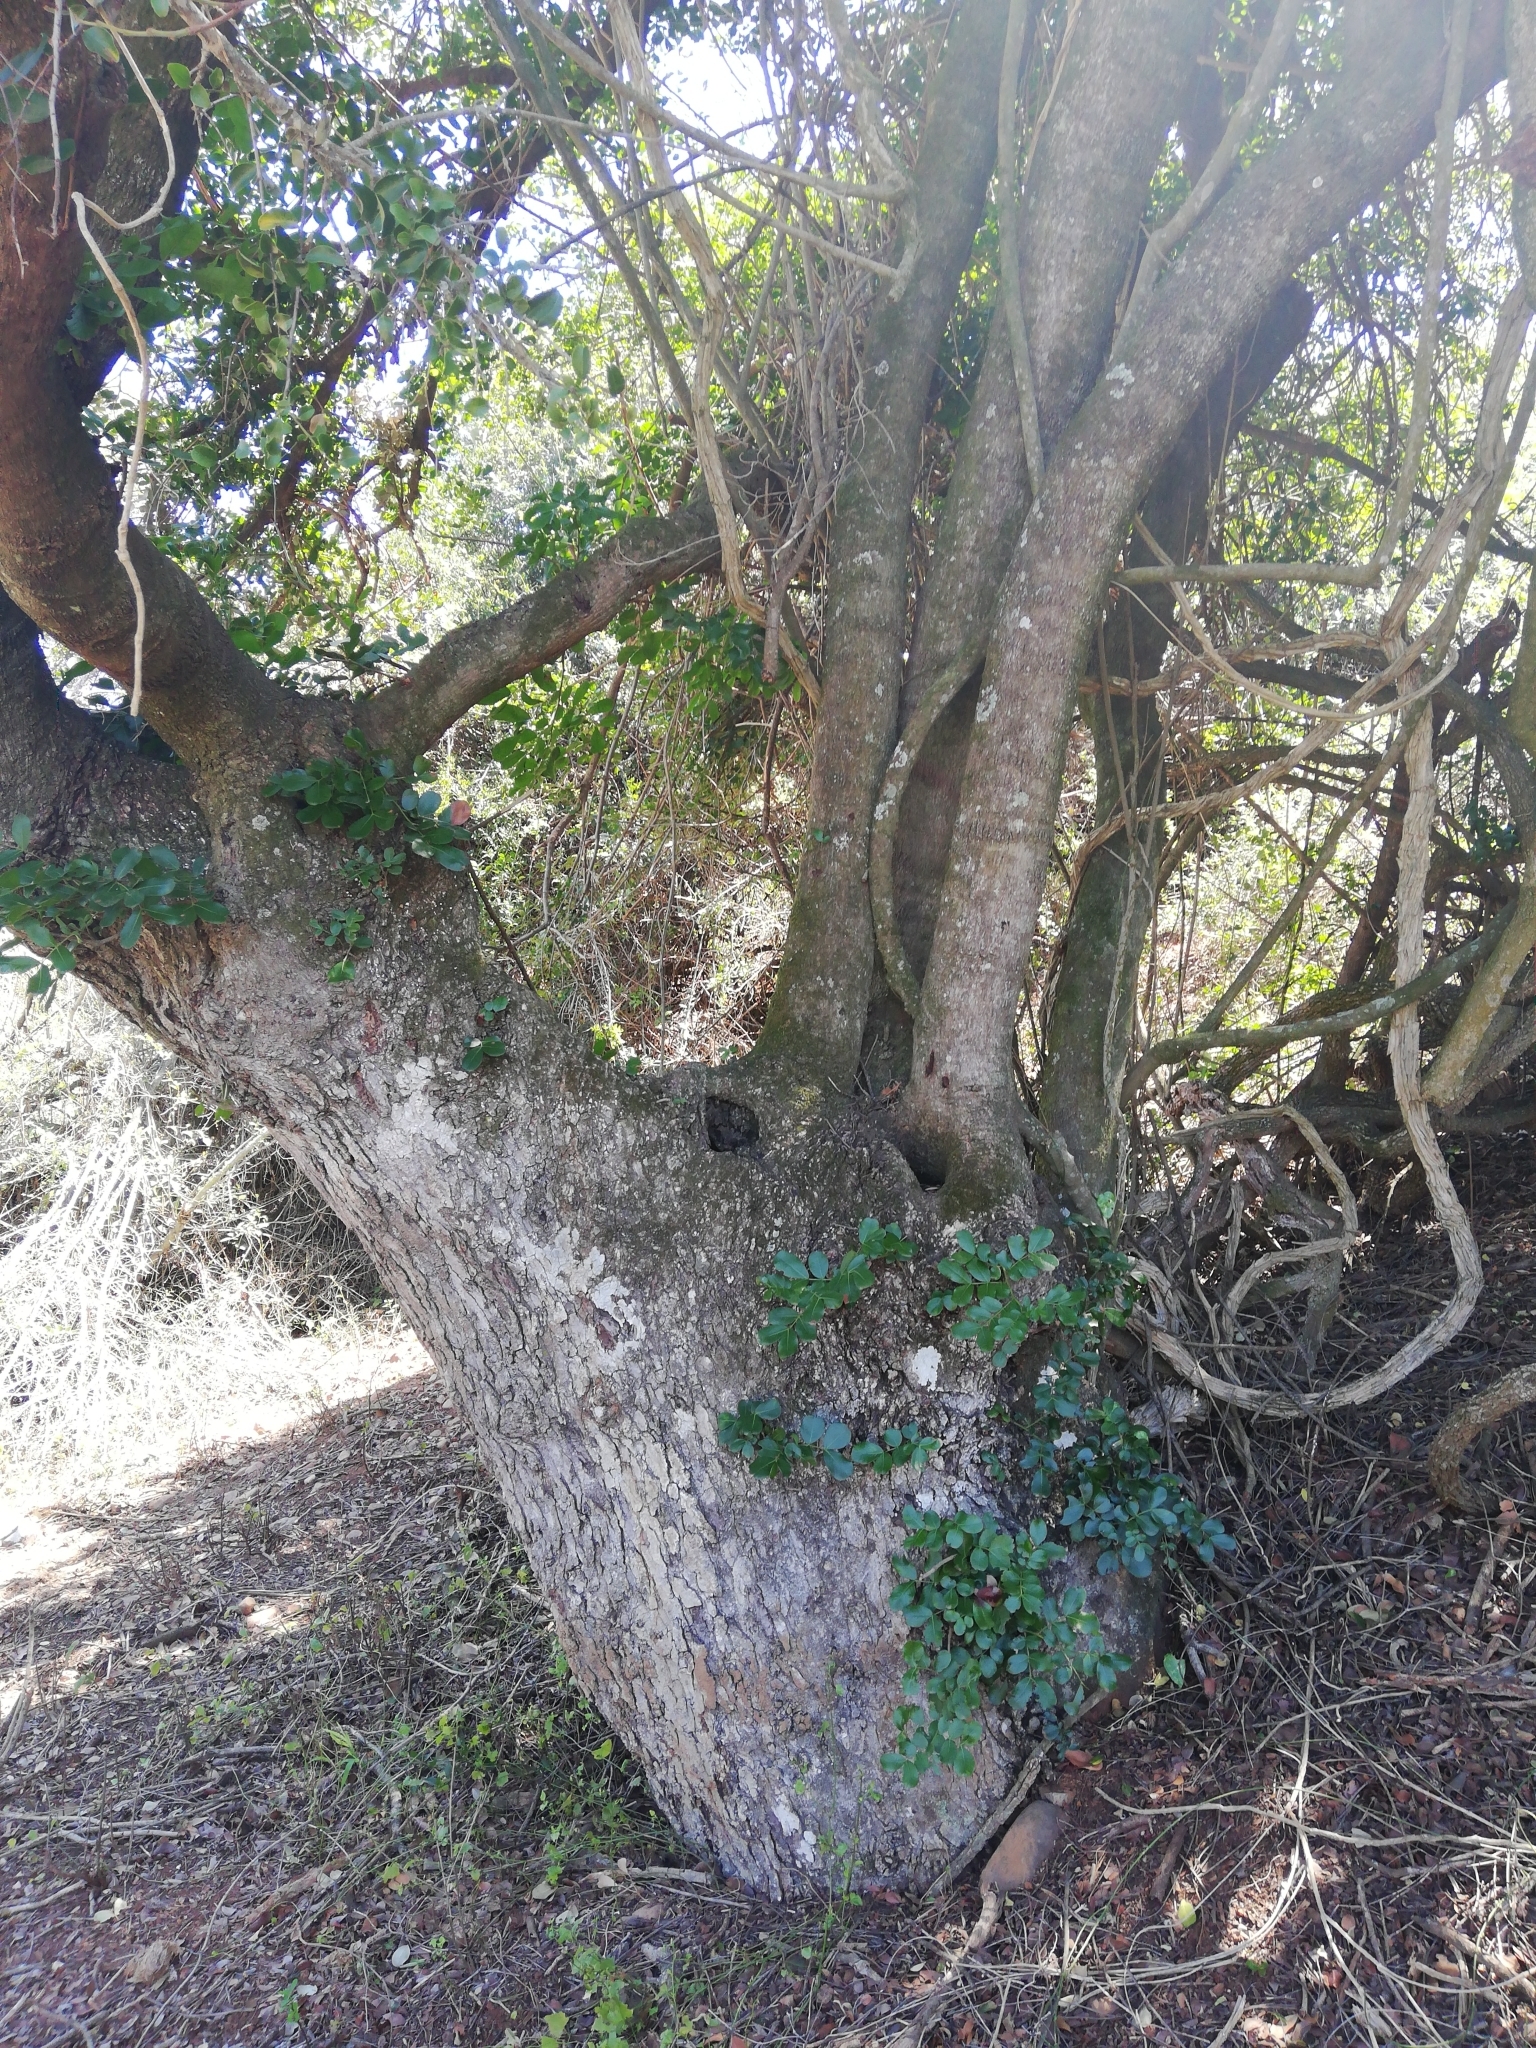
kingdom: Plantae
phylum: Tracheophyta
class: Magnoliopsida
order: Fabales
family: Fabaceae
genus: Schotia
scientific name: Schotia latifolia
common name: Bush boer-bean
